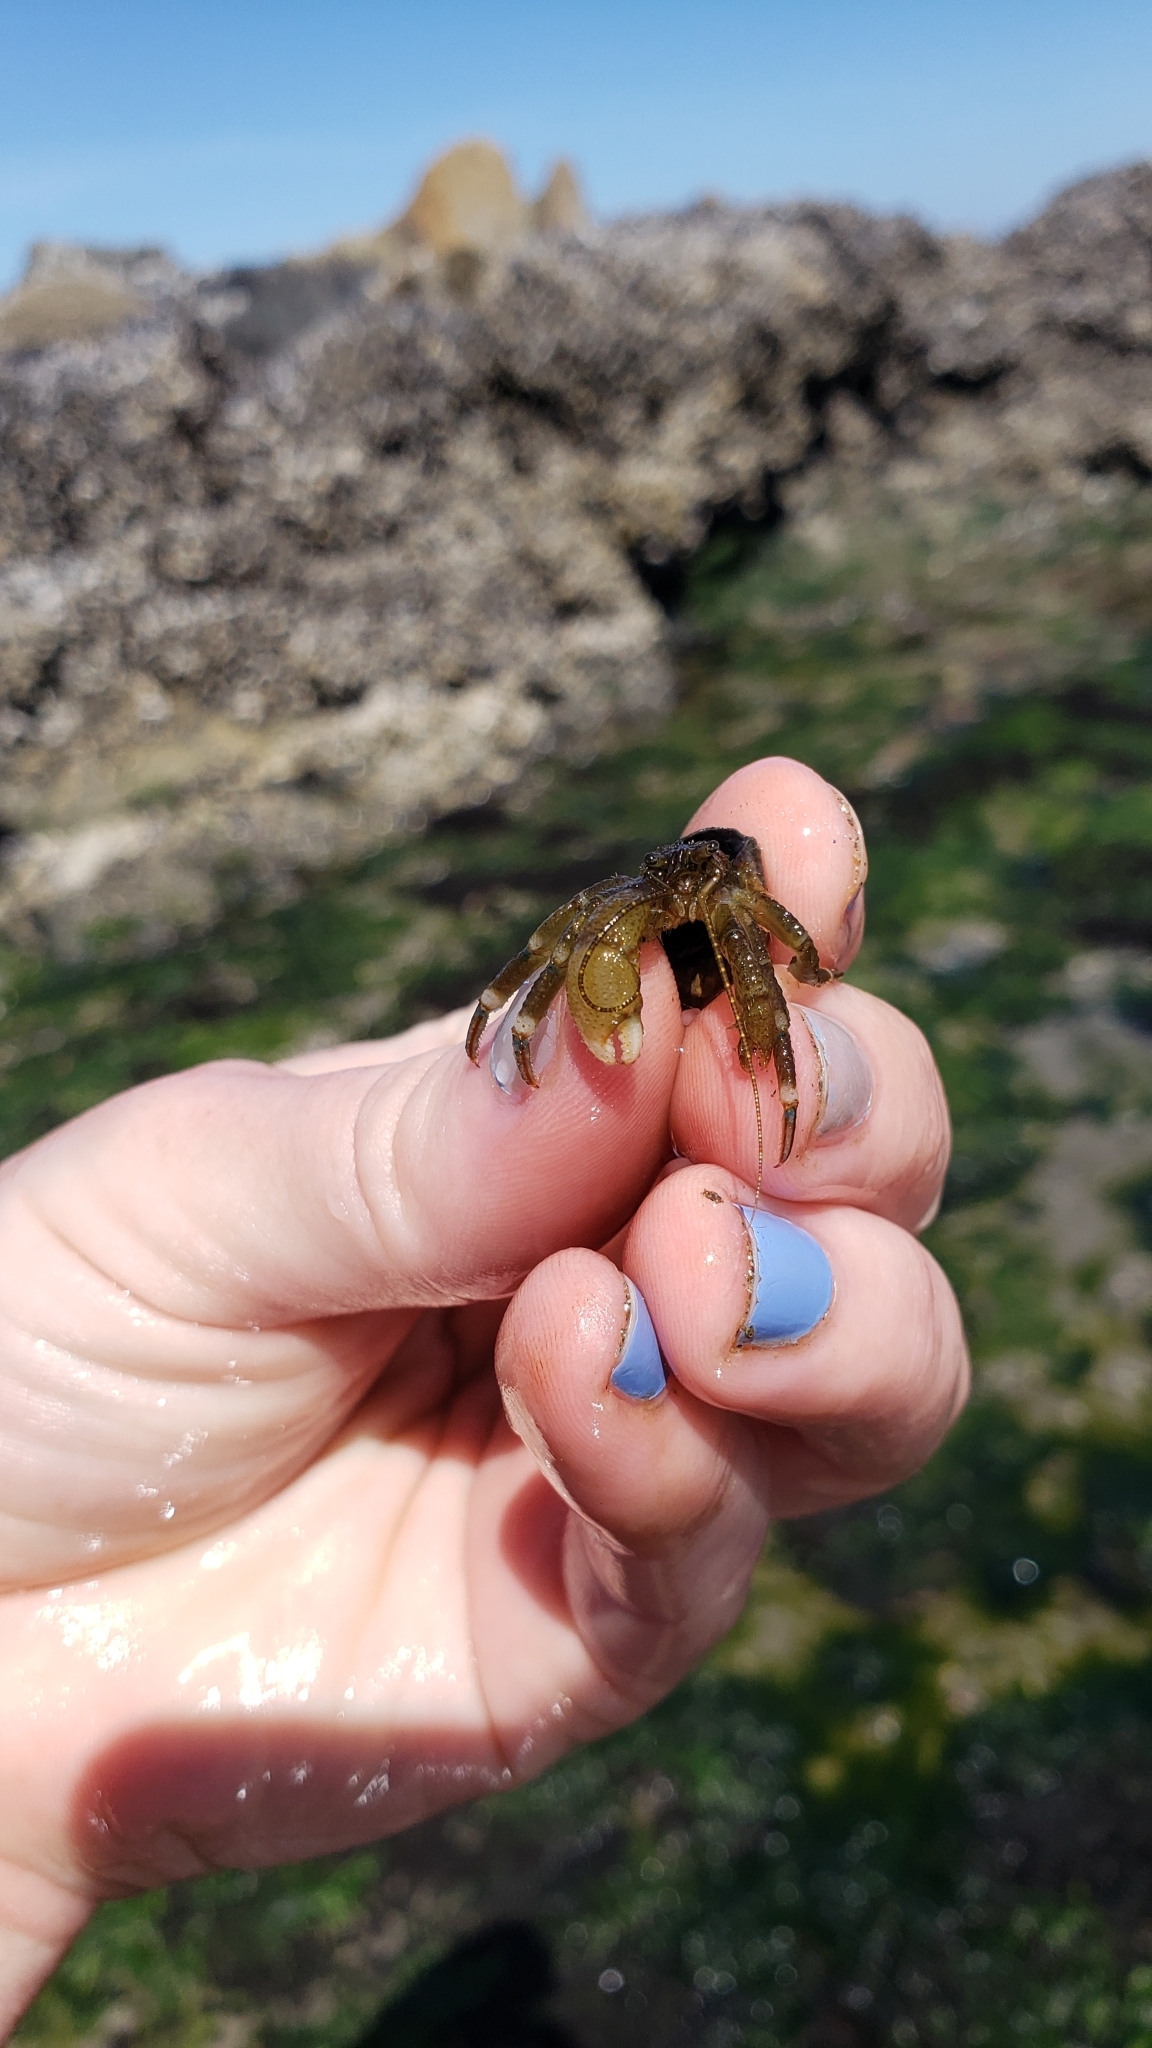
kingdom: Animalia
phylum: Arthropoda
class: Malacostraca
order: Decapoda
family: Paguridae
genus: Pagurus
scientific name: Pagurus hirsutiusculus
